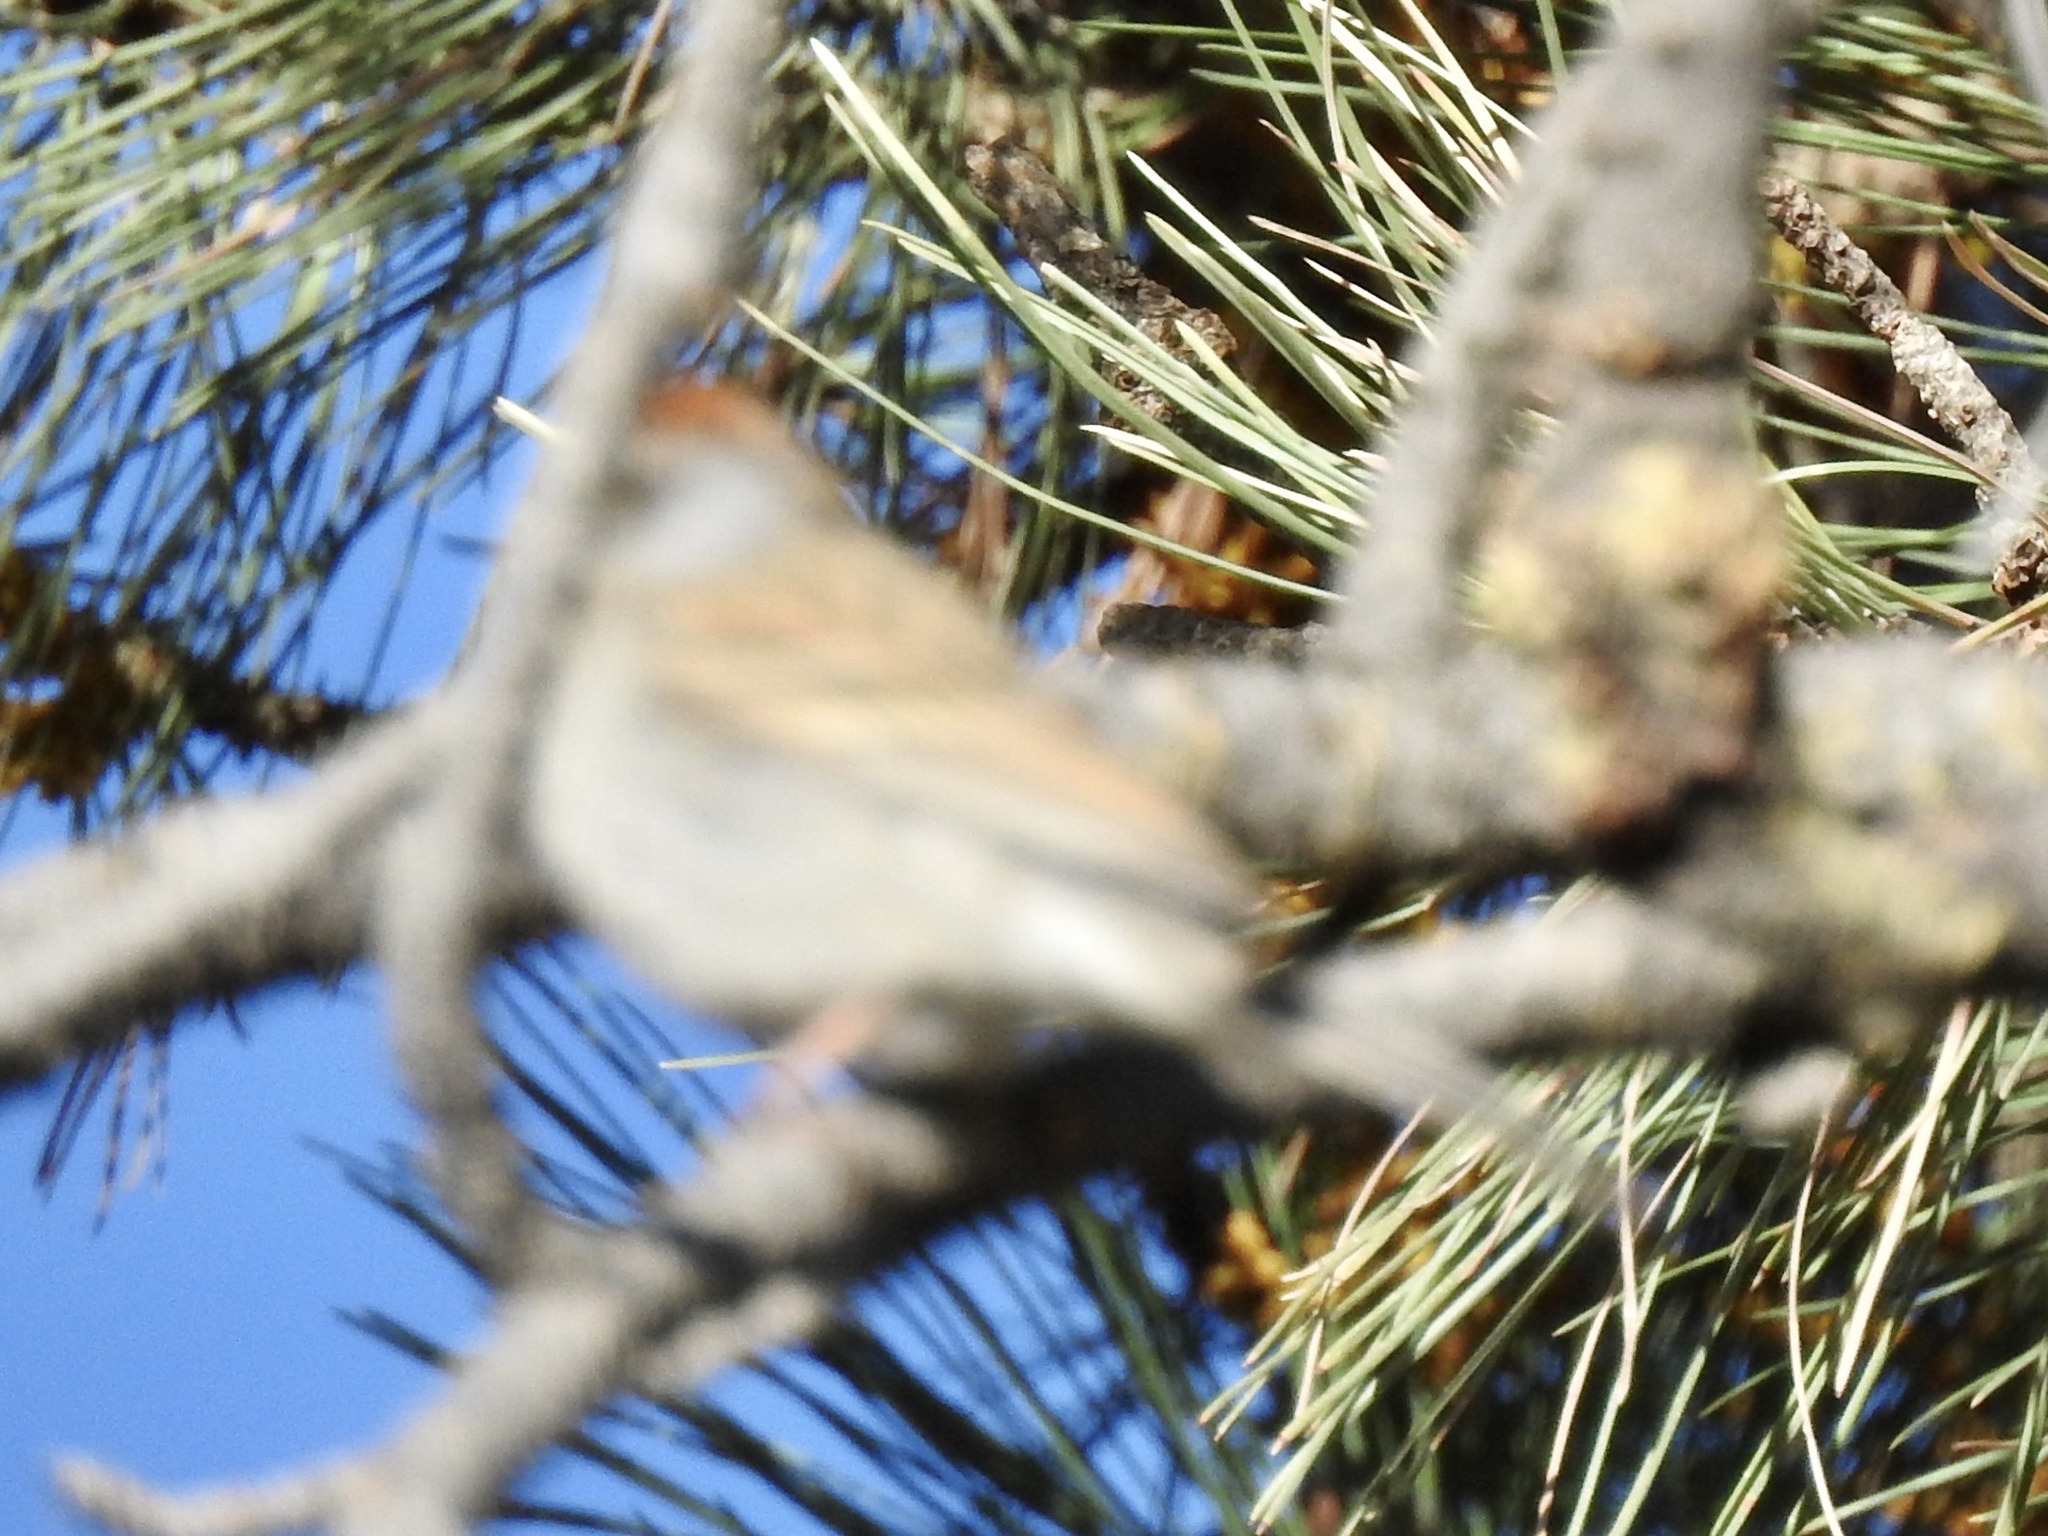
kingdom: Animalia
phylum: Chordata
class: Aves
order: Passeriformes
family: Passerellidae
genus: Spizella
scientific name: Spizella passerina
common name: Chipping sparrow
